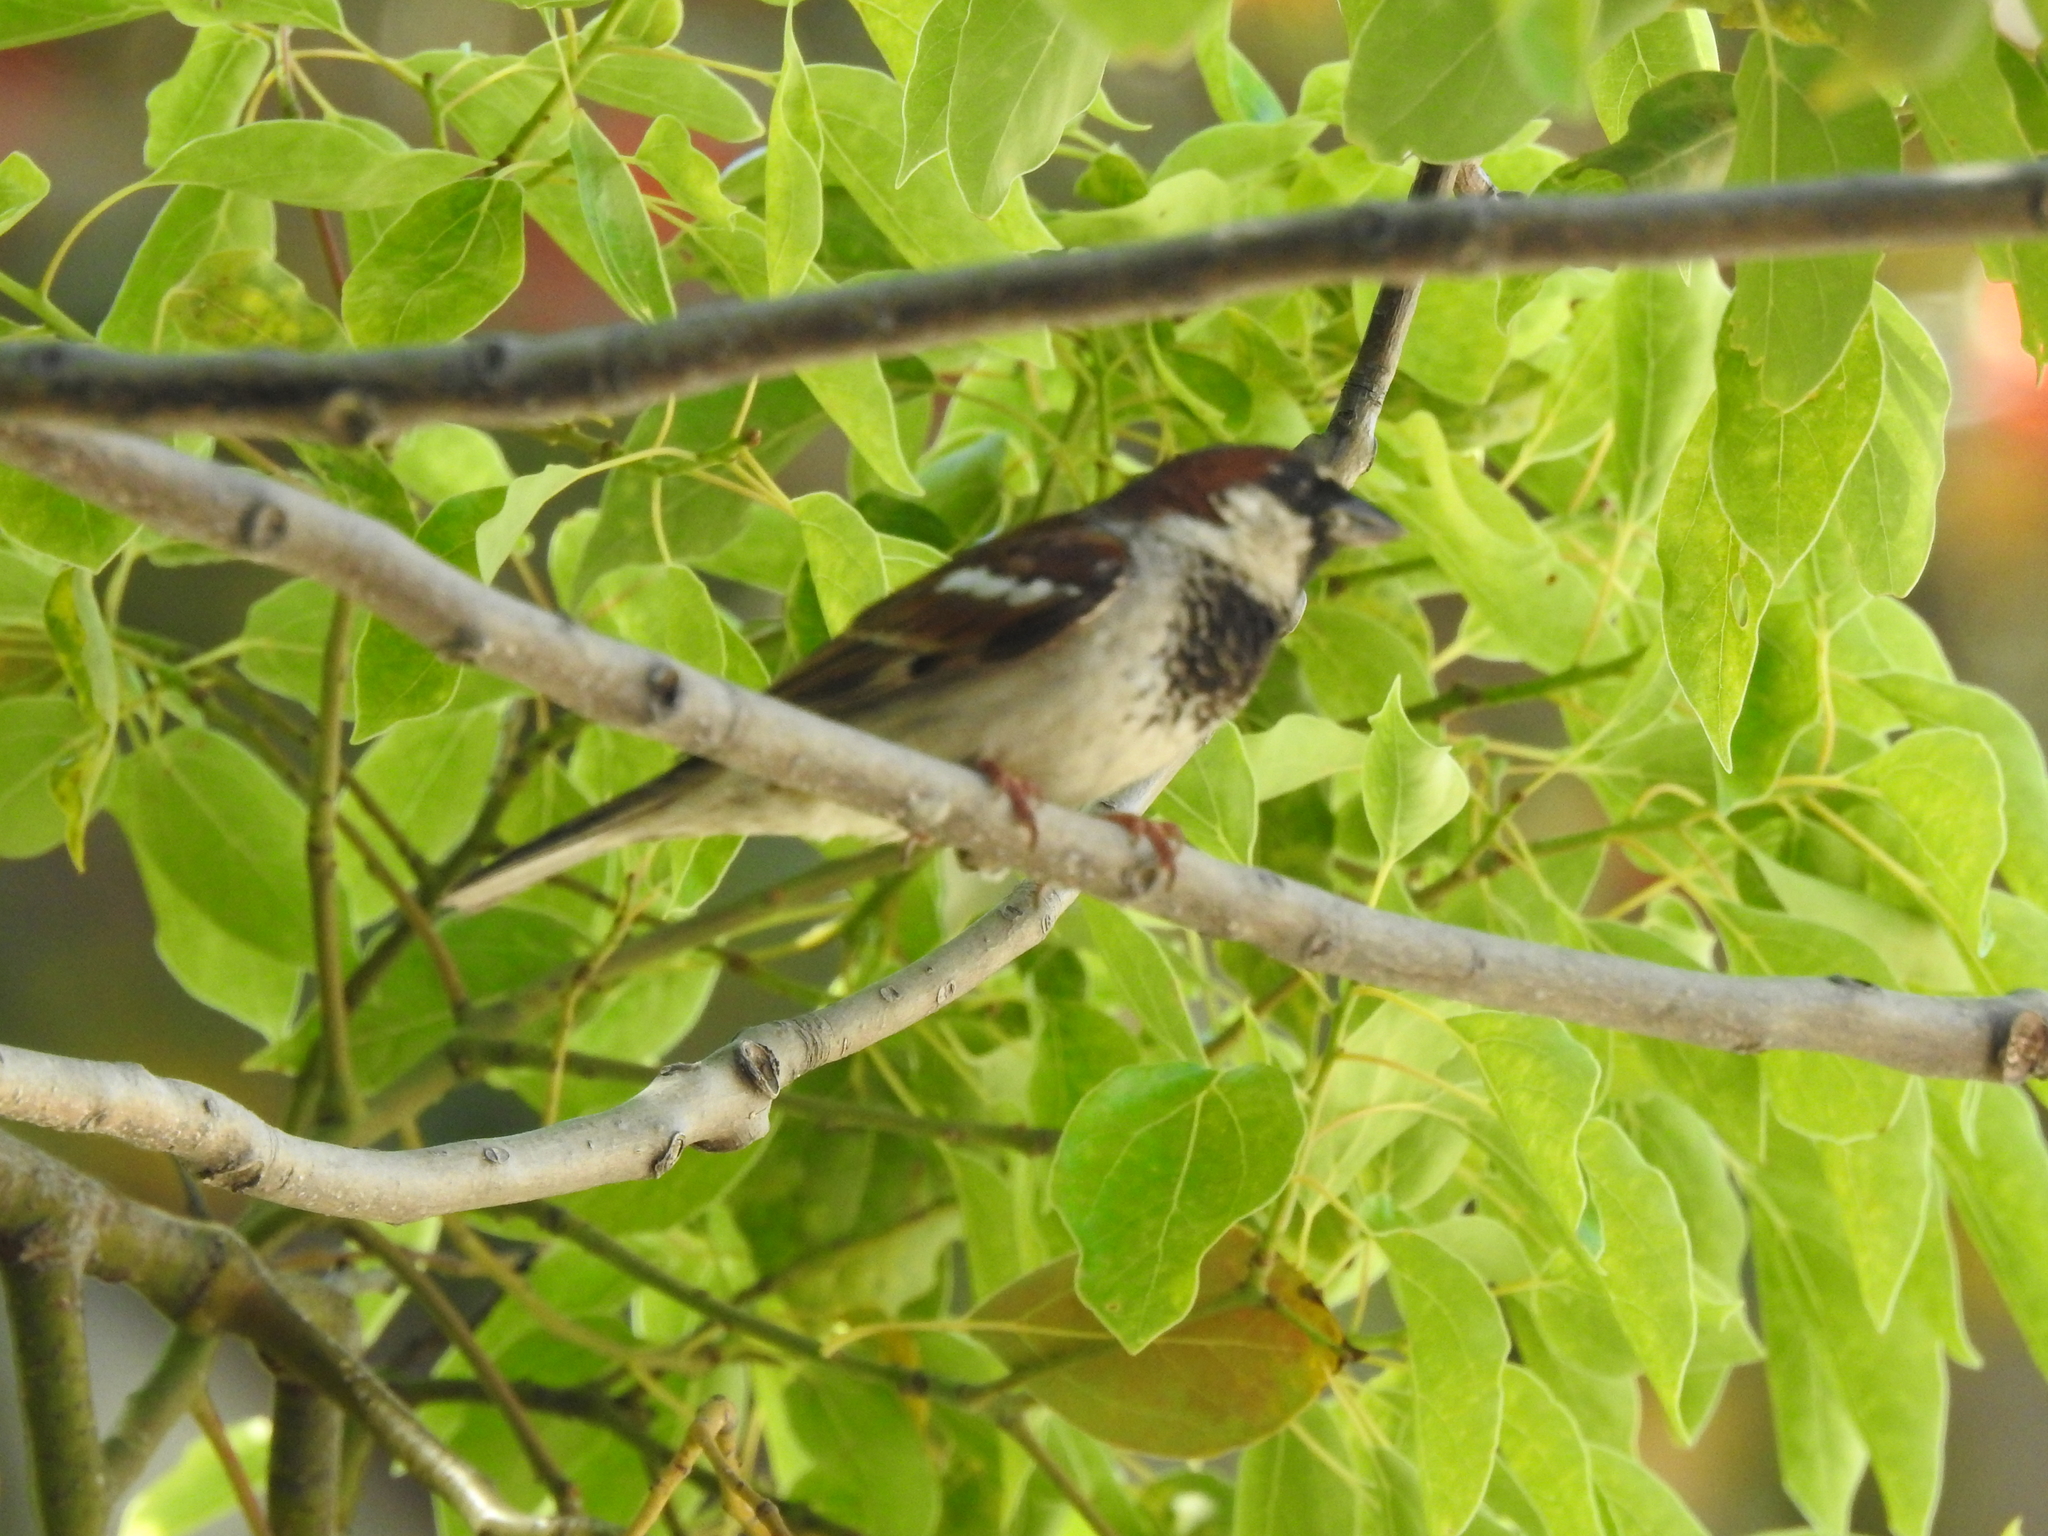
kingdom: Animalia
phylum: Chordata
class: Aves
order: Passeriformes
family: Passeridae
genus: Passer
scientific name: Passer domesticus
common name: House sparrow
